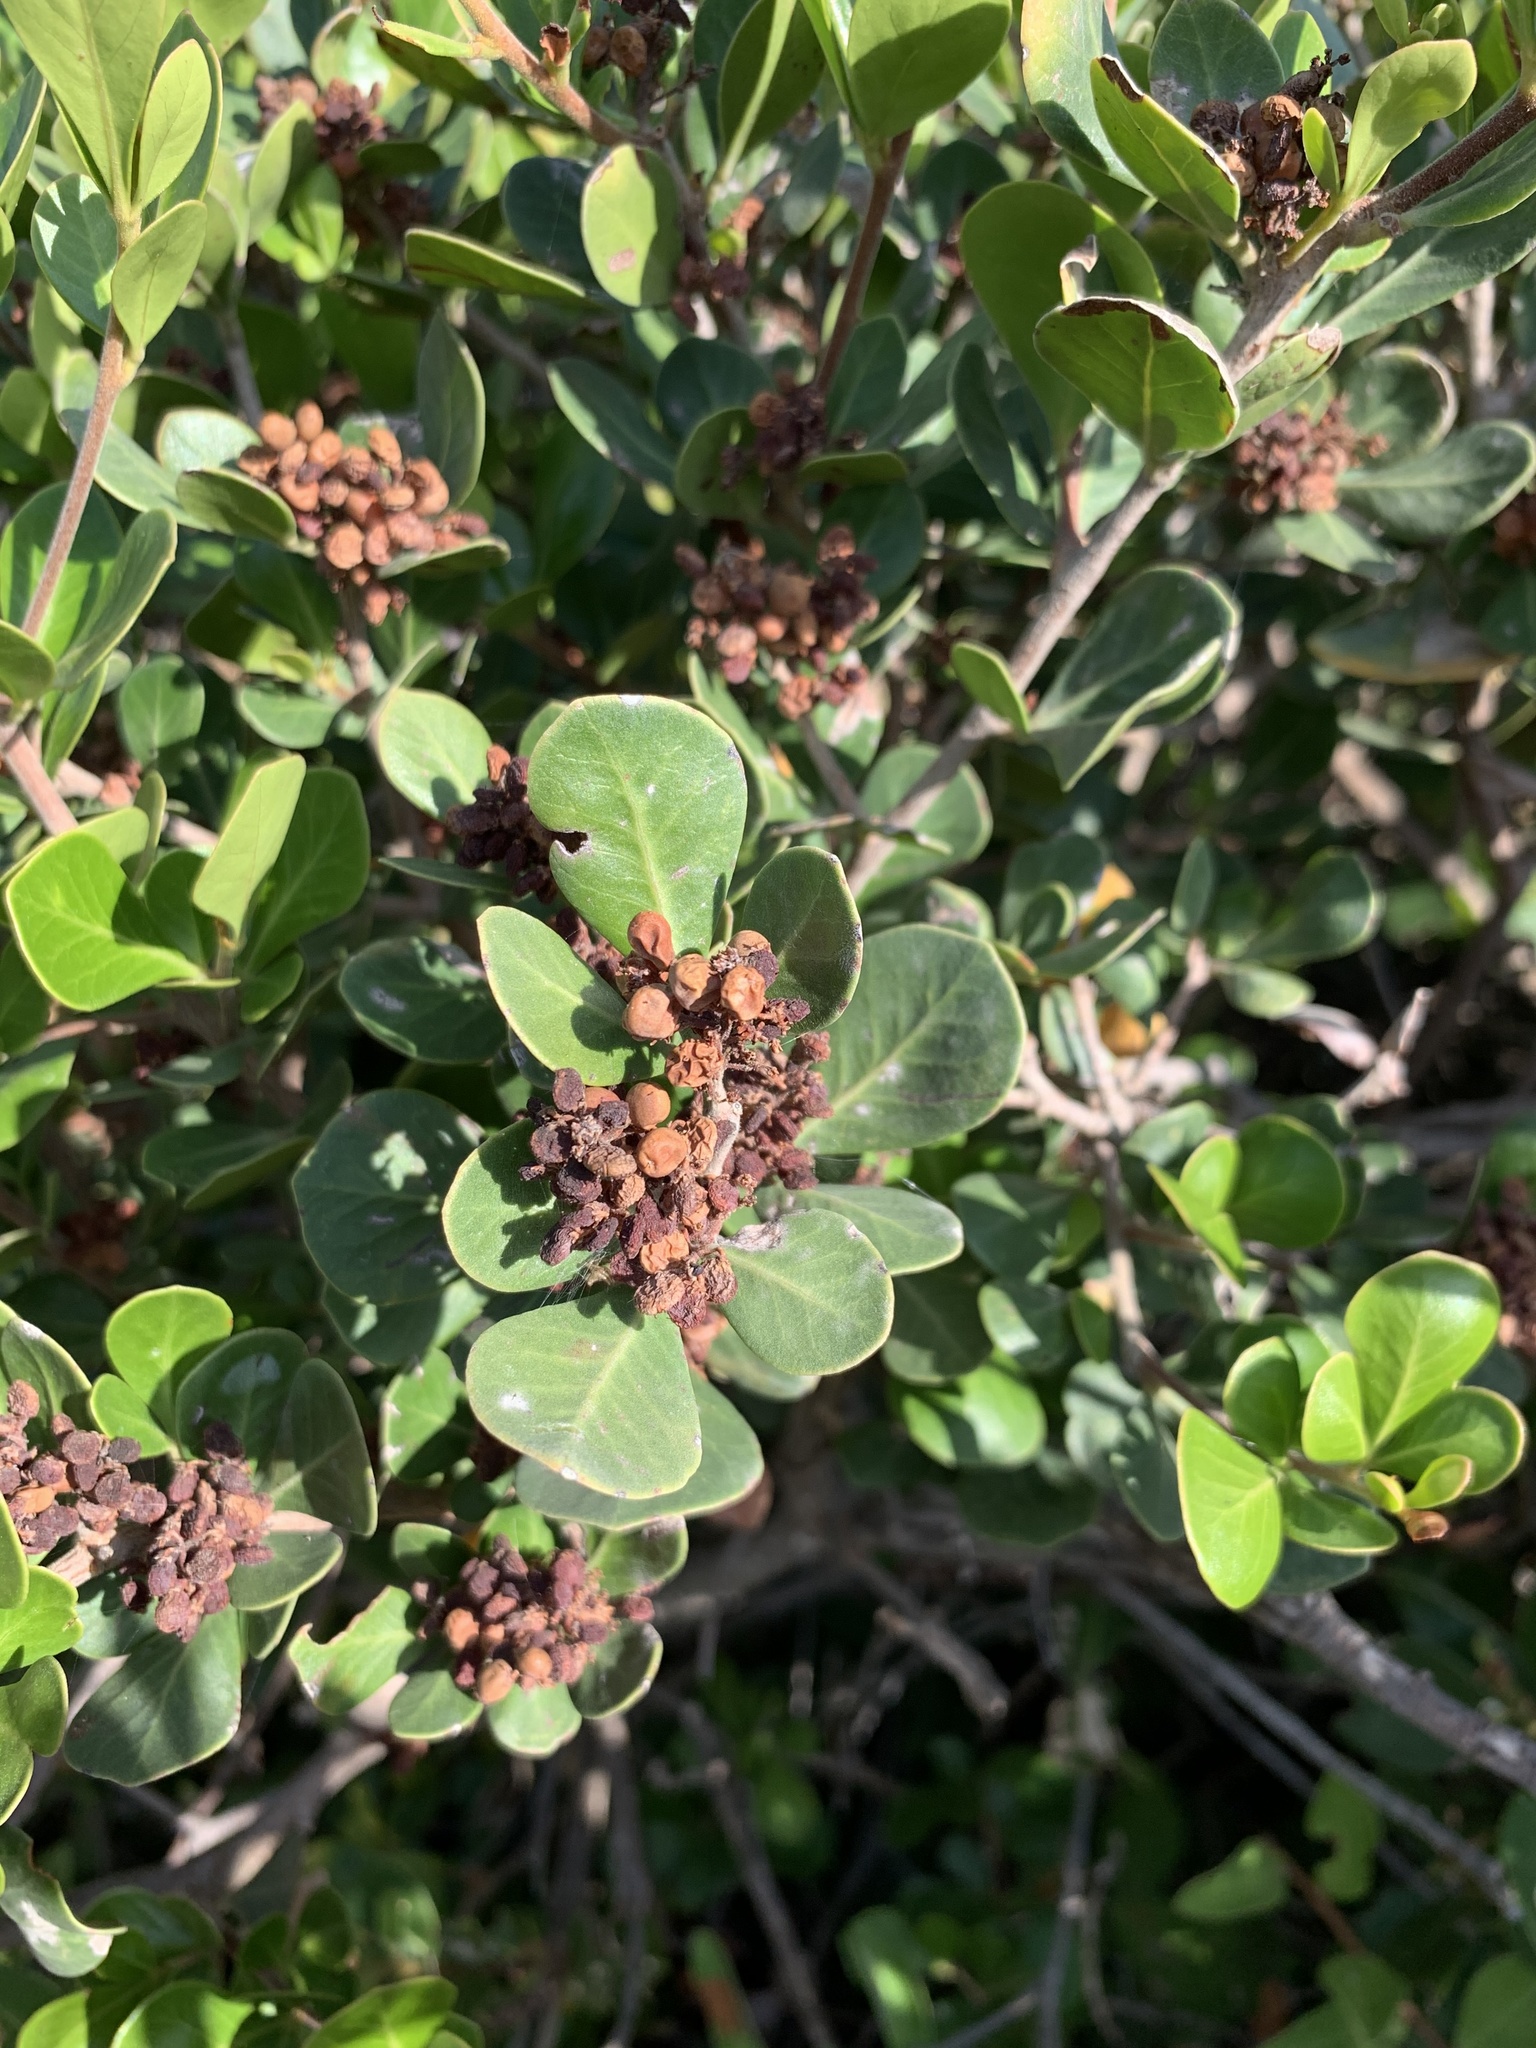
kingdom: Plantae
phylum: Tracheophyta
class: Magnoliopsida
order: Sapindales
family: Anacardiaceae
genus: Searsia
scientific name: Searsia lucida
